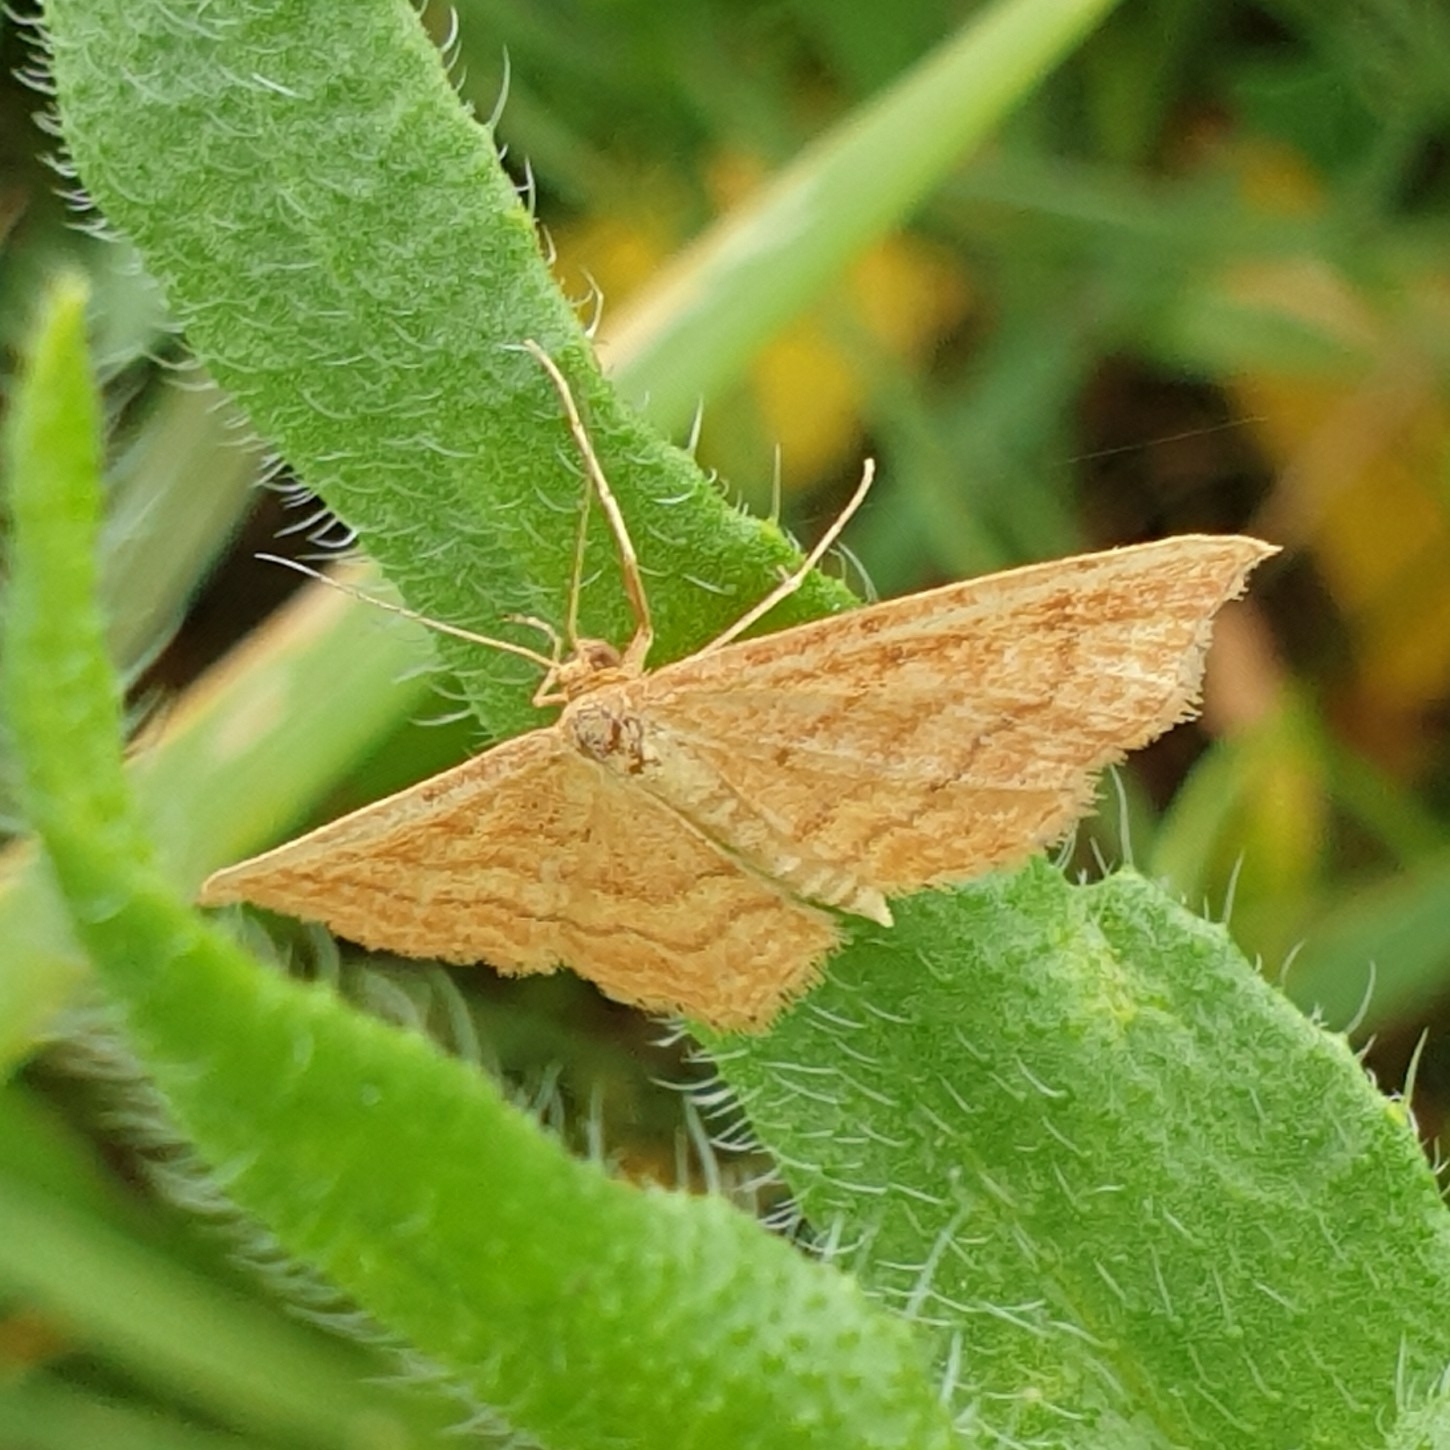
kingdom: Animalia
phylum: Arthropoda
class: Insecta
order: Lepidoptera
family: Geometridae
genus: Idaea
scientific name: Idaea ochrata
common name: Bright wave
